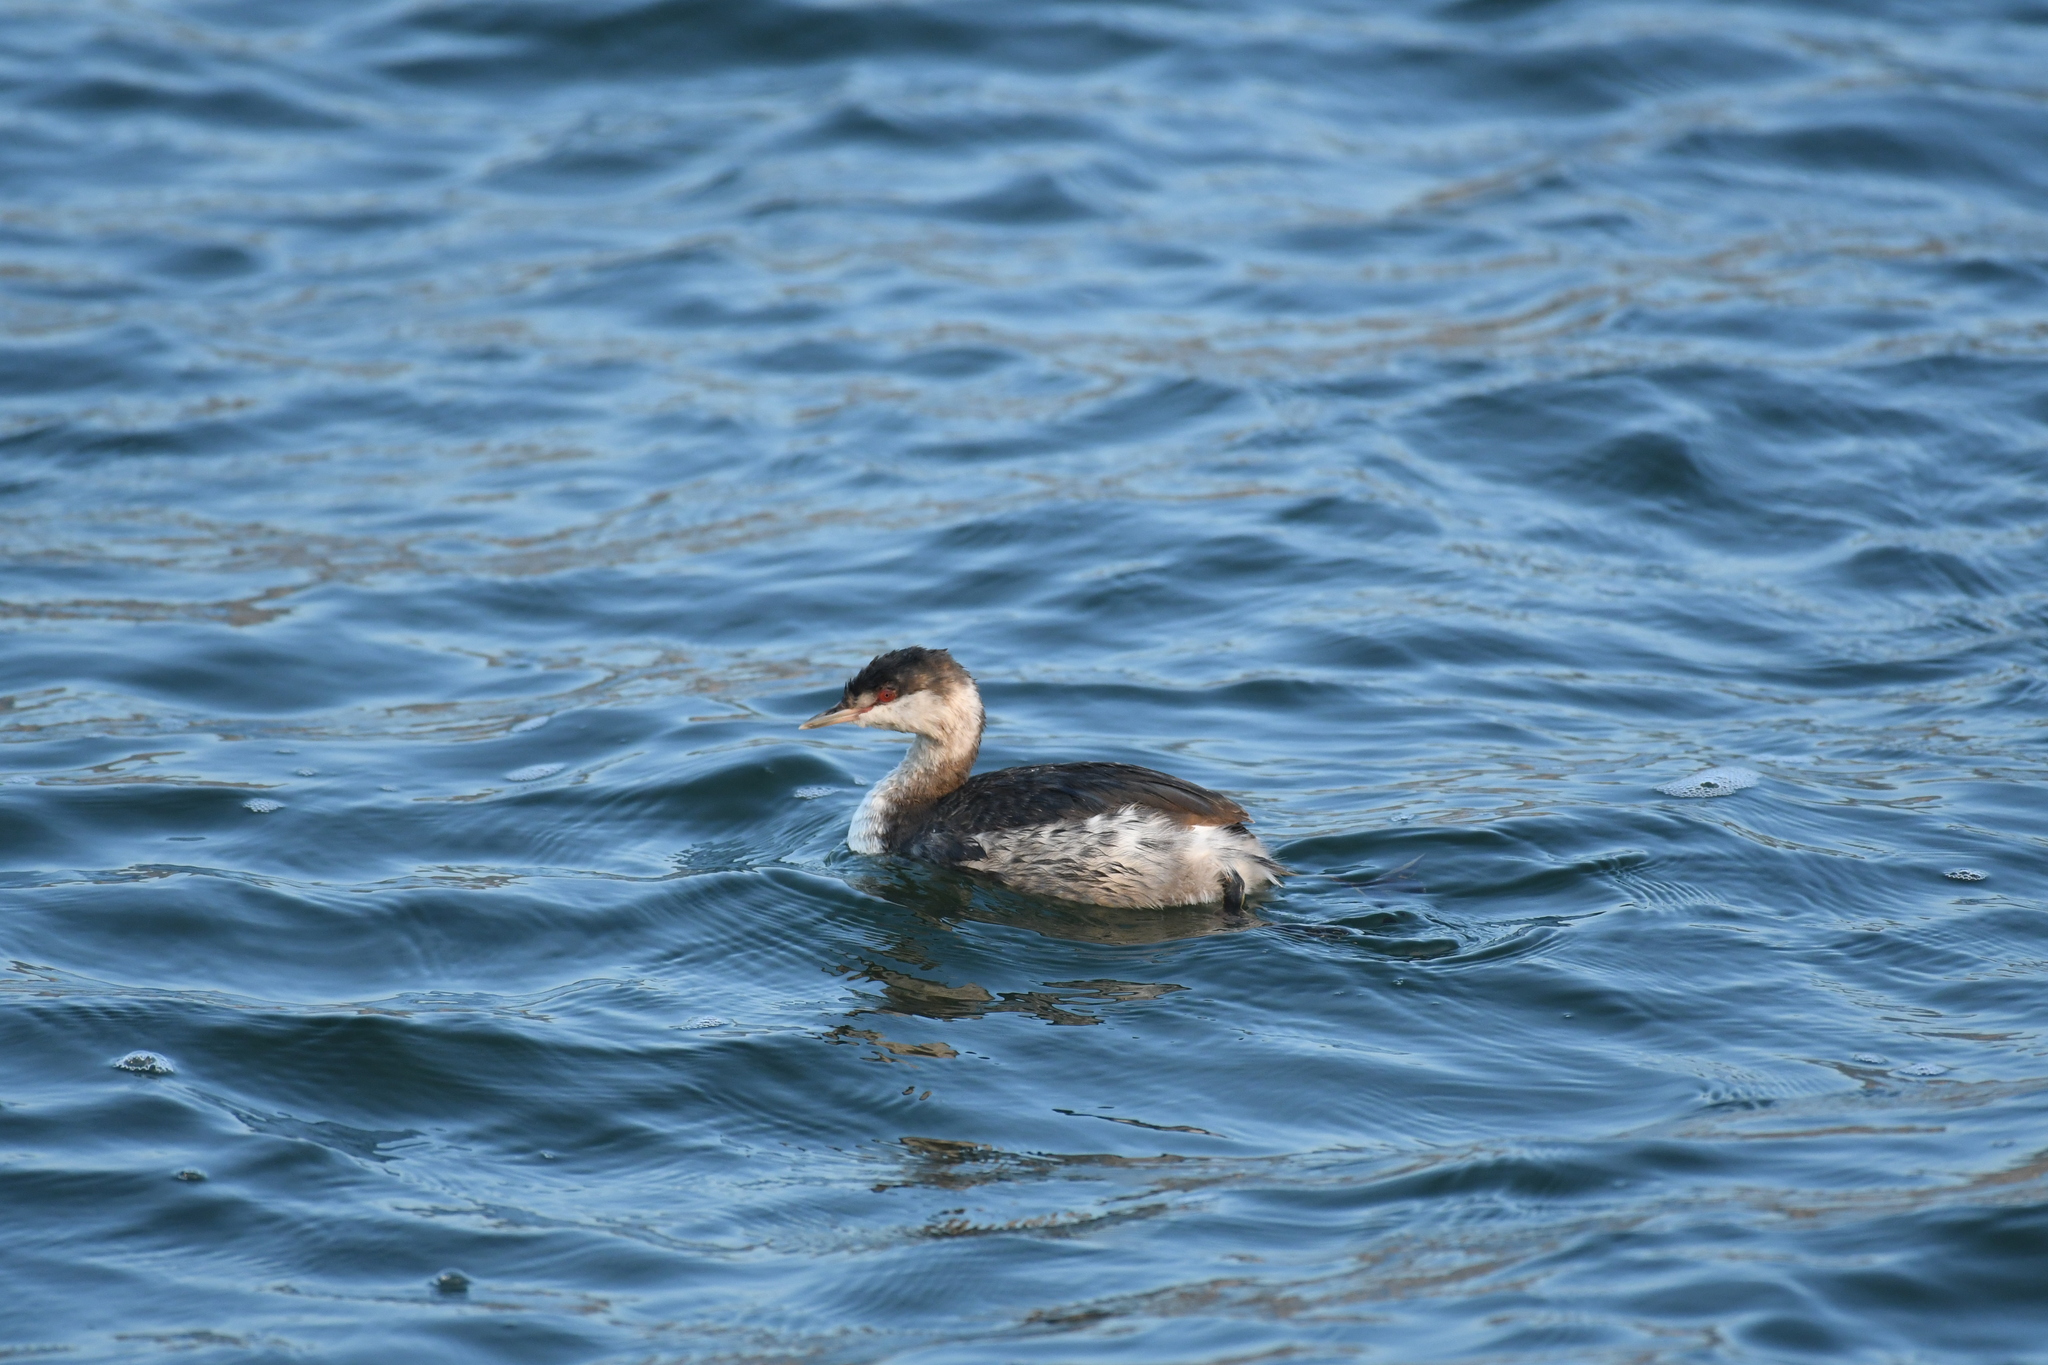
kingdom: Animalia
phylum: Chordata
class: Aves
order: Podicipediformes
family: Podicipedidae
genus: Podiceps
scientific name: Podiceps auritus
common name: Horned grebe
